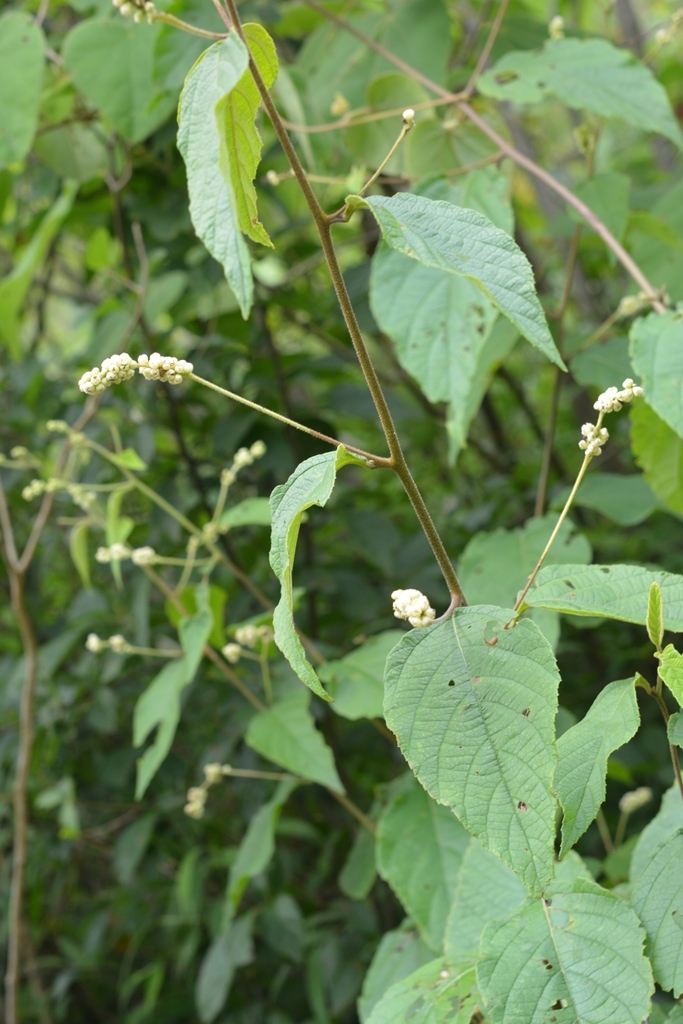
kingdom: Plantae
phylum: Tracheophyta
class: Magnoliopsida
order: Boraginales
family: Cordiaceae
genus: Varronia
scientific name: Varronia spinescens
